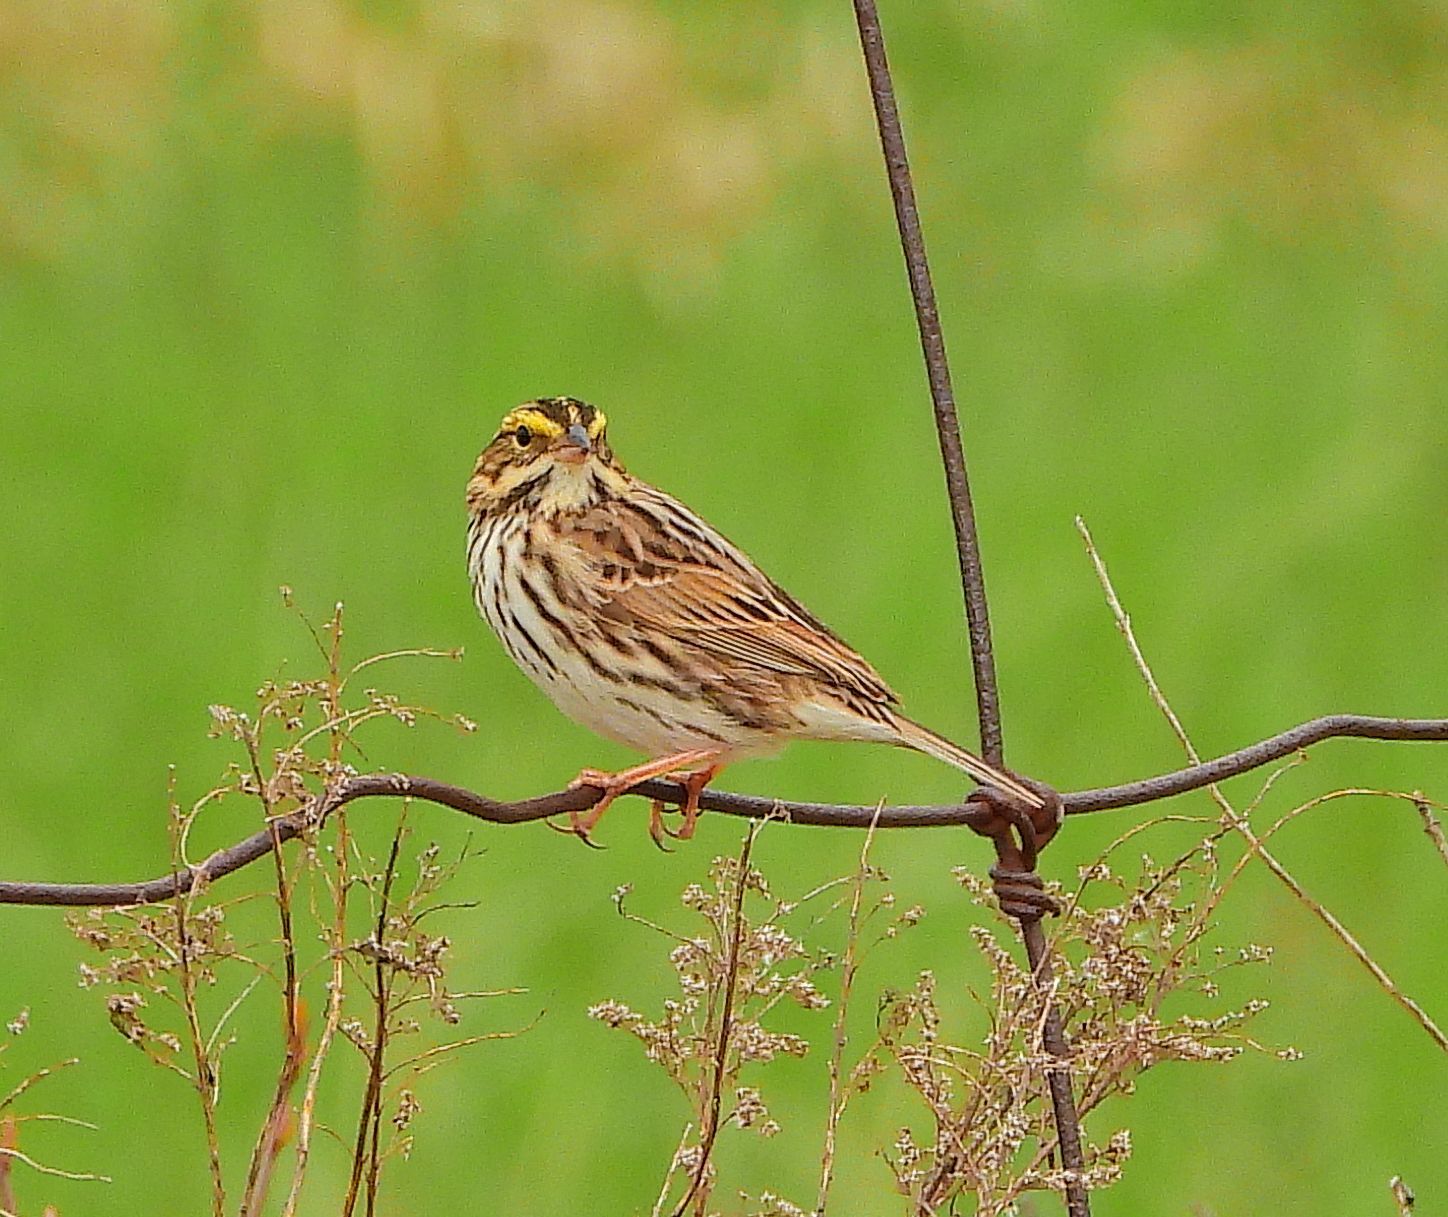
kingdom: Animalia
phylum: Chordata
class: Aves
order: Passeriformes
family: Passerellidae
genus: Passerculus
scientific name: Passerculus sandwichensis
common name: Savannah sparrow
